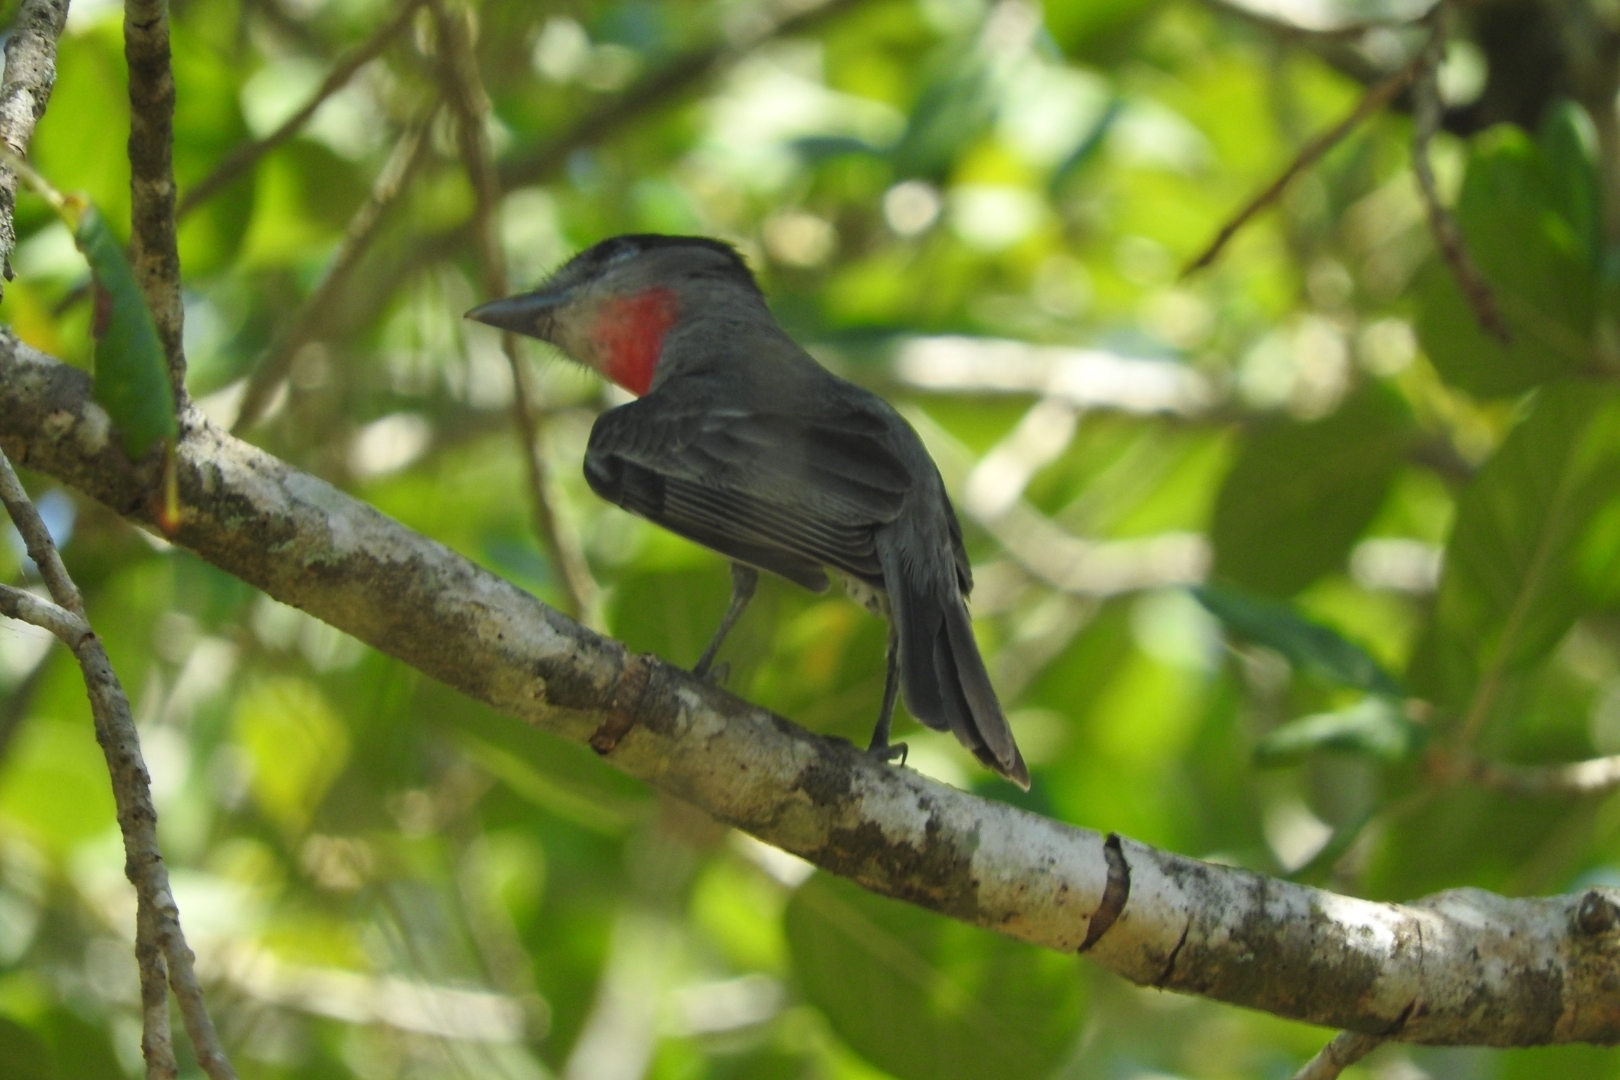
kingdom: Animalia
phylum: Chordata
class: Aves
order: Passeriformes
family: Cotingidae
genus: Pachyramphus
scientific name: Pachyramphus aglaiae
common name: Rose-throated becard
